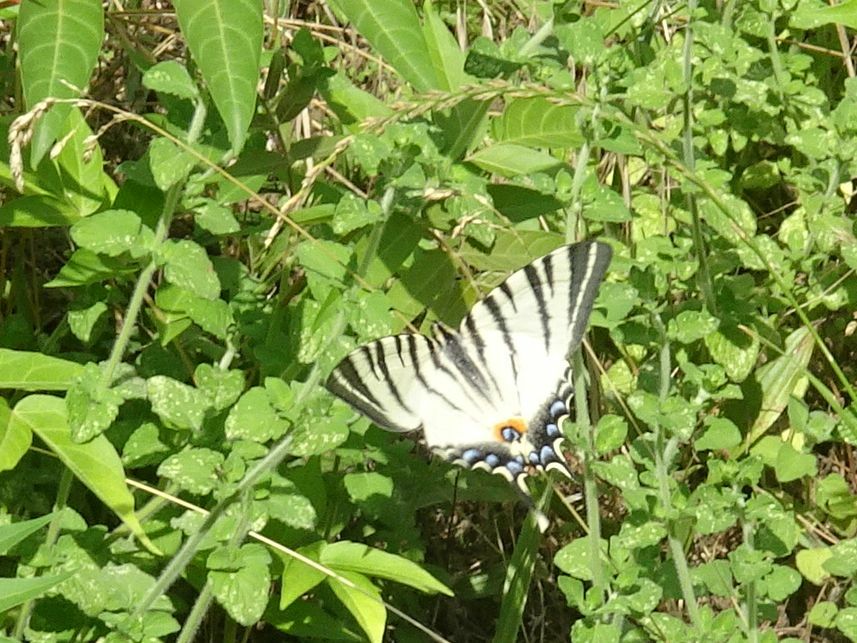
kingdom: Animalia
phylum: Arthropoda
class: Insecta
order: Lepidoptera
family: Papilionidae
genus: Iphiclides
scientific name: Iphiclides podalirius
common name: Scarce swallowtail
